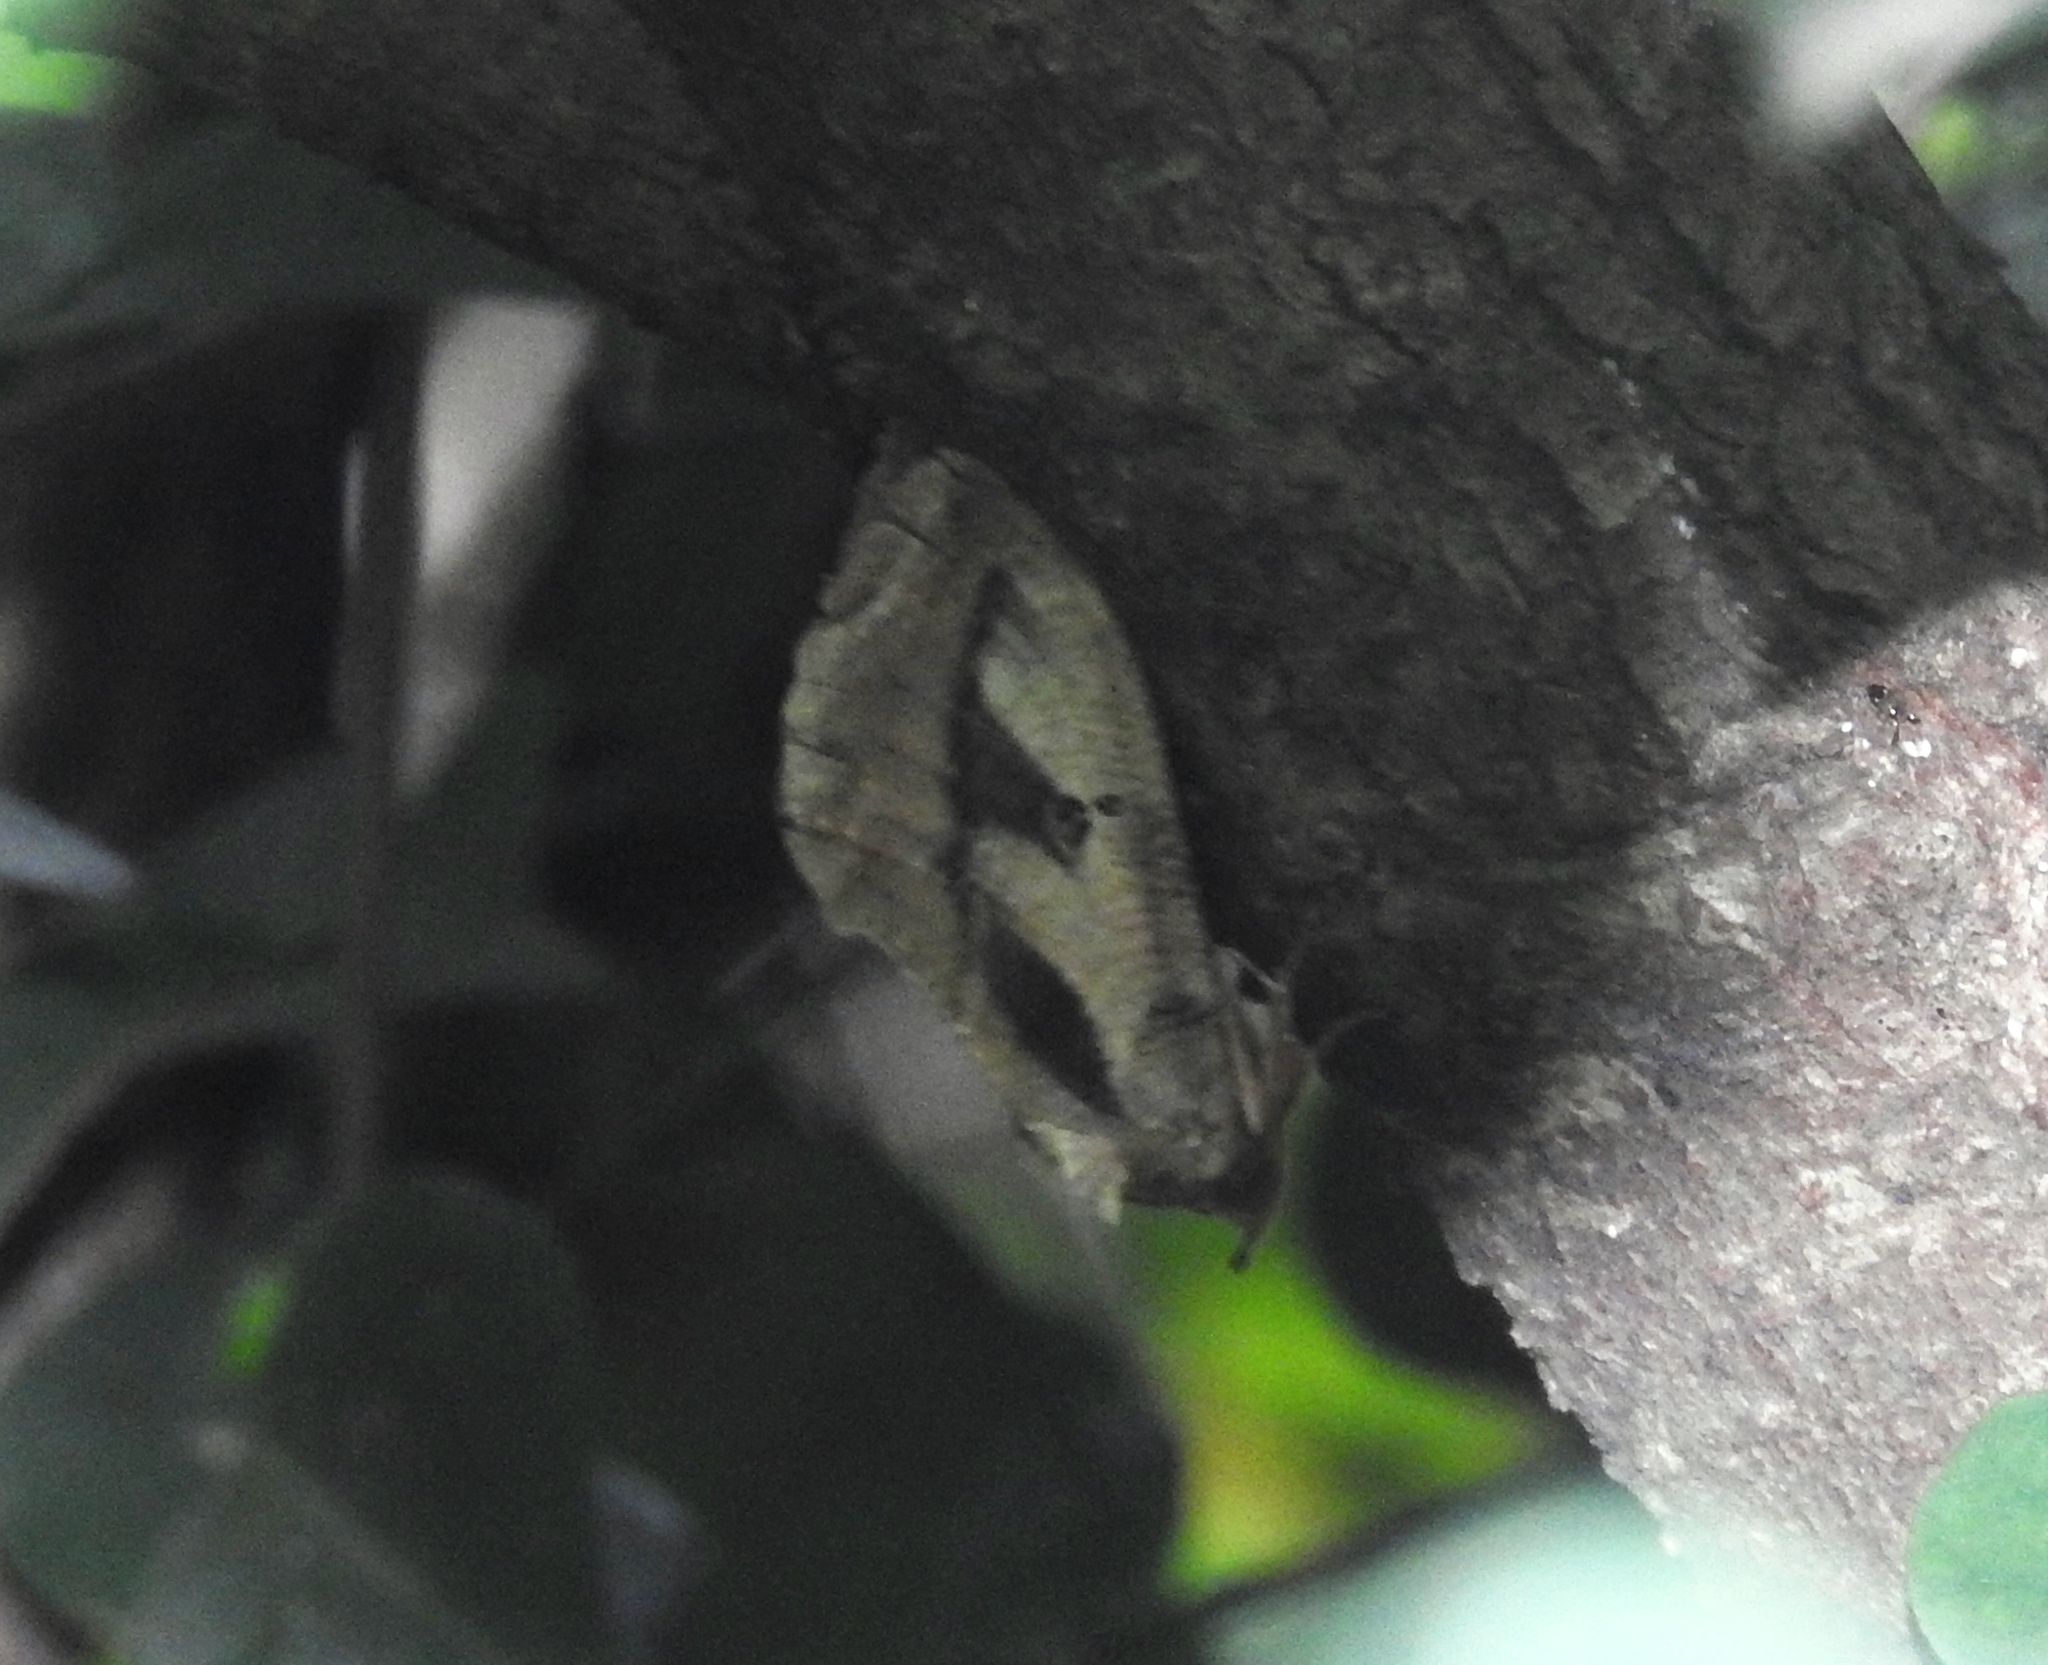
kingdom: Animalia
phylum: Arthropoda
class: Insecta
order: Lepidoptera
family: Erebidae
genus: Eudocima
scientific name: Eudocima materna
